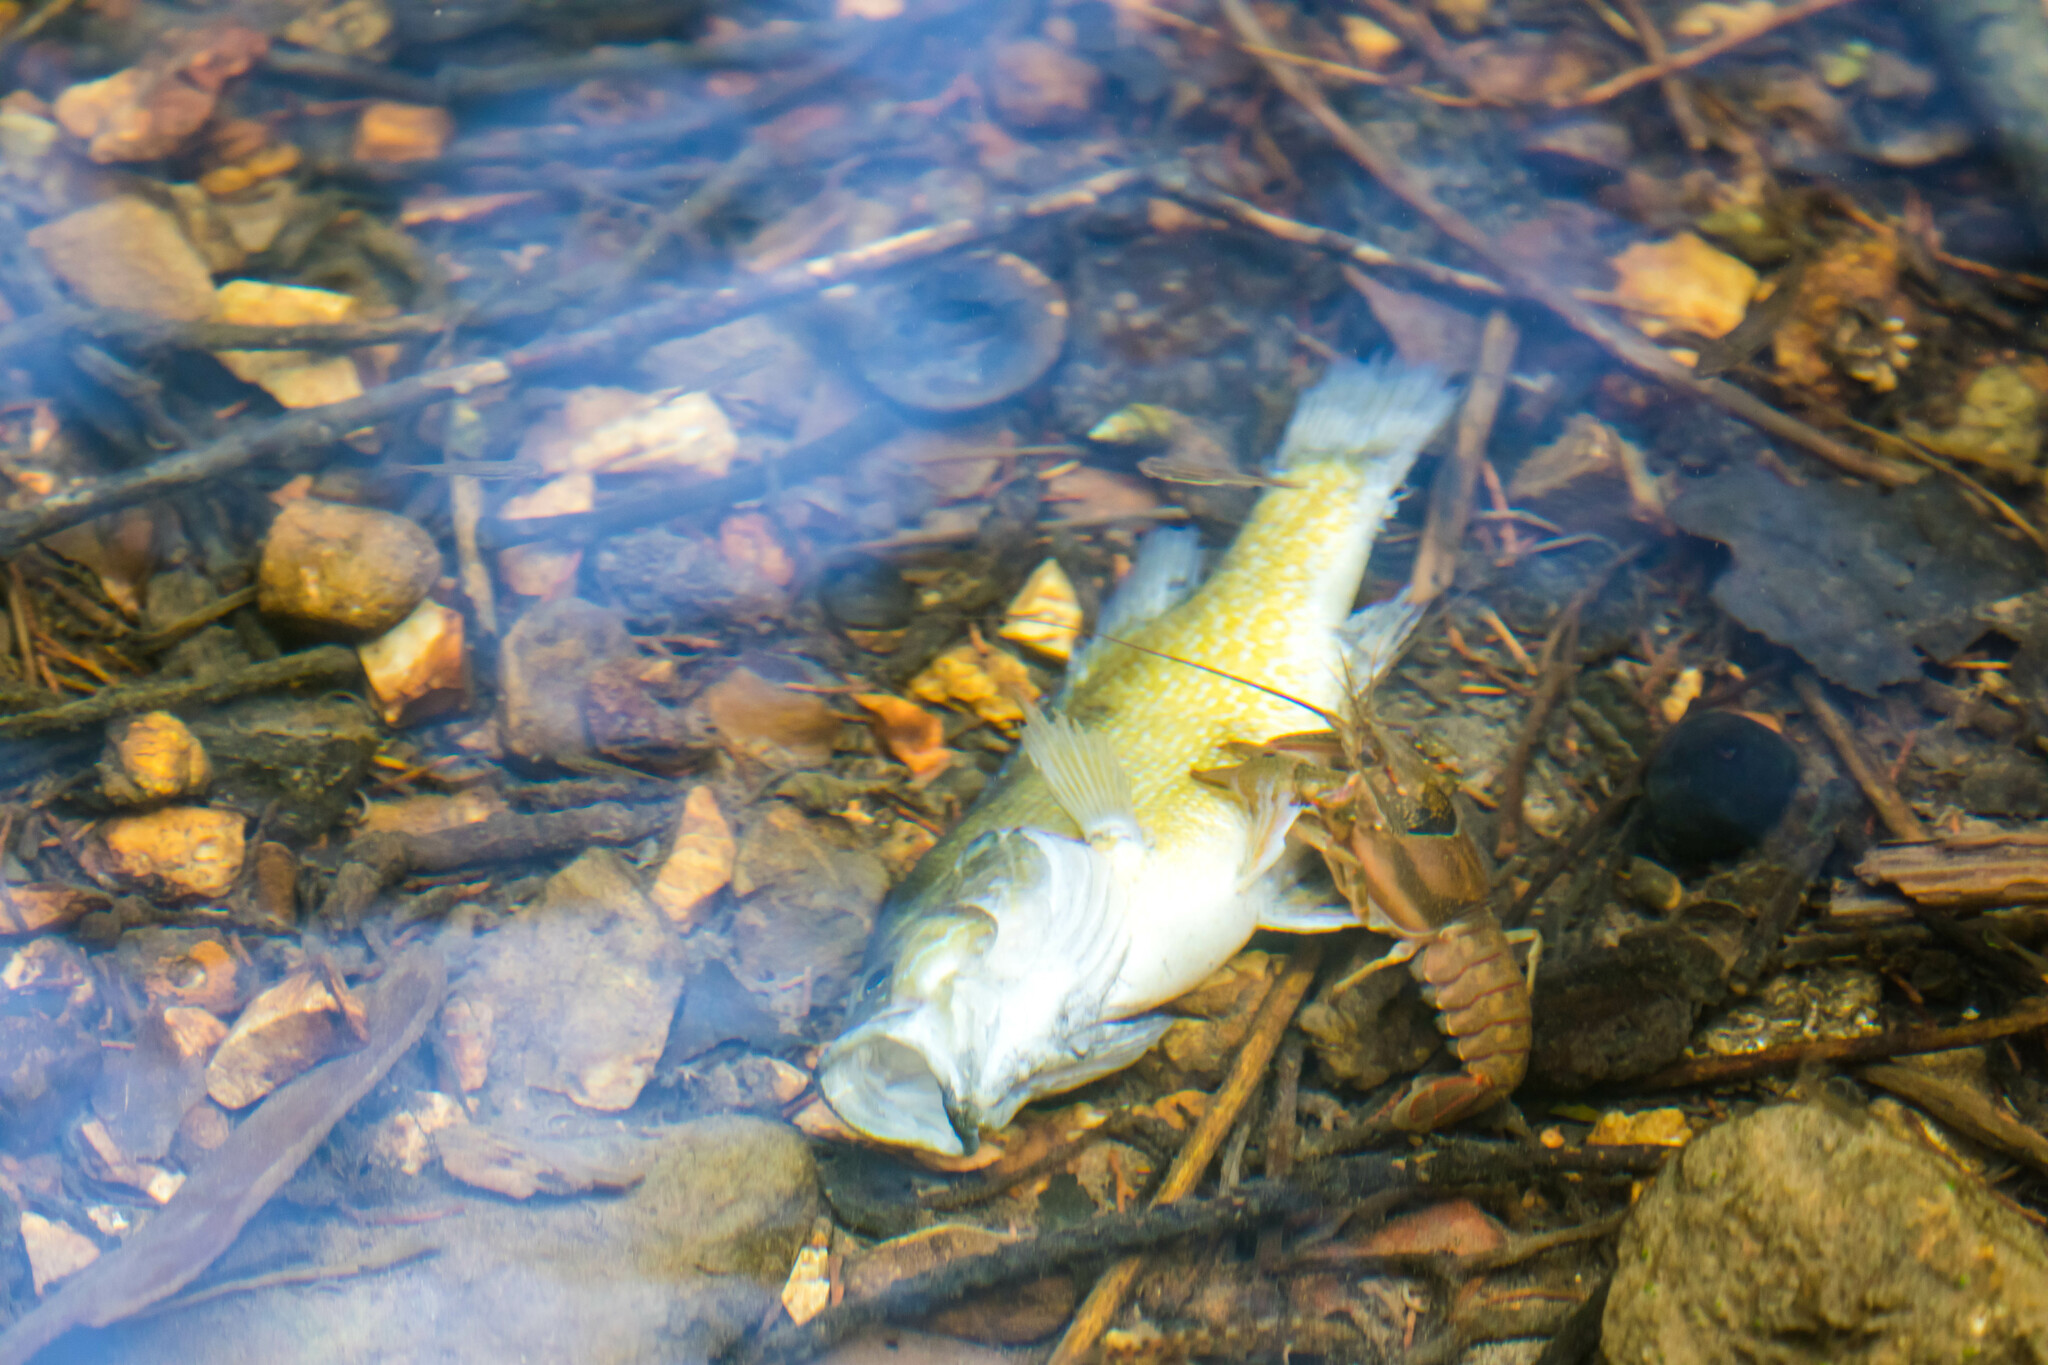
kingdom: Animalia
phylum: Arthropoda
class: Malacostraca
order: Decapoda
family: Cambaridae
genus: Faxonius
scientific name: Faxonius punctimanus
